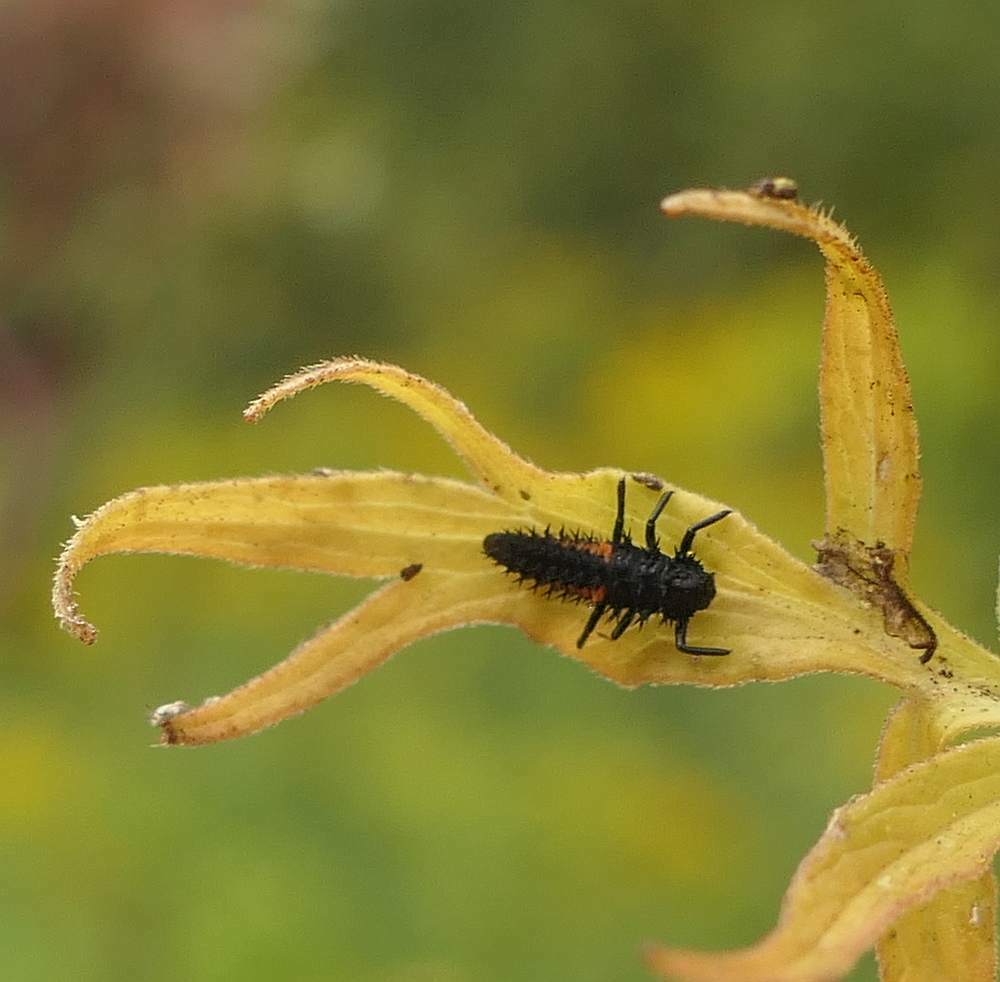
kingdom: Animalia
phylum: Arthropoda
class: Insecta
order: Coleoptera
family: Coccinellidae
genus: Harmonia
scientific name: Harmonia axyridis
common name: Harlequin ladybird
